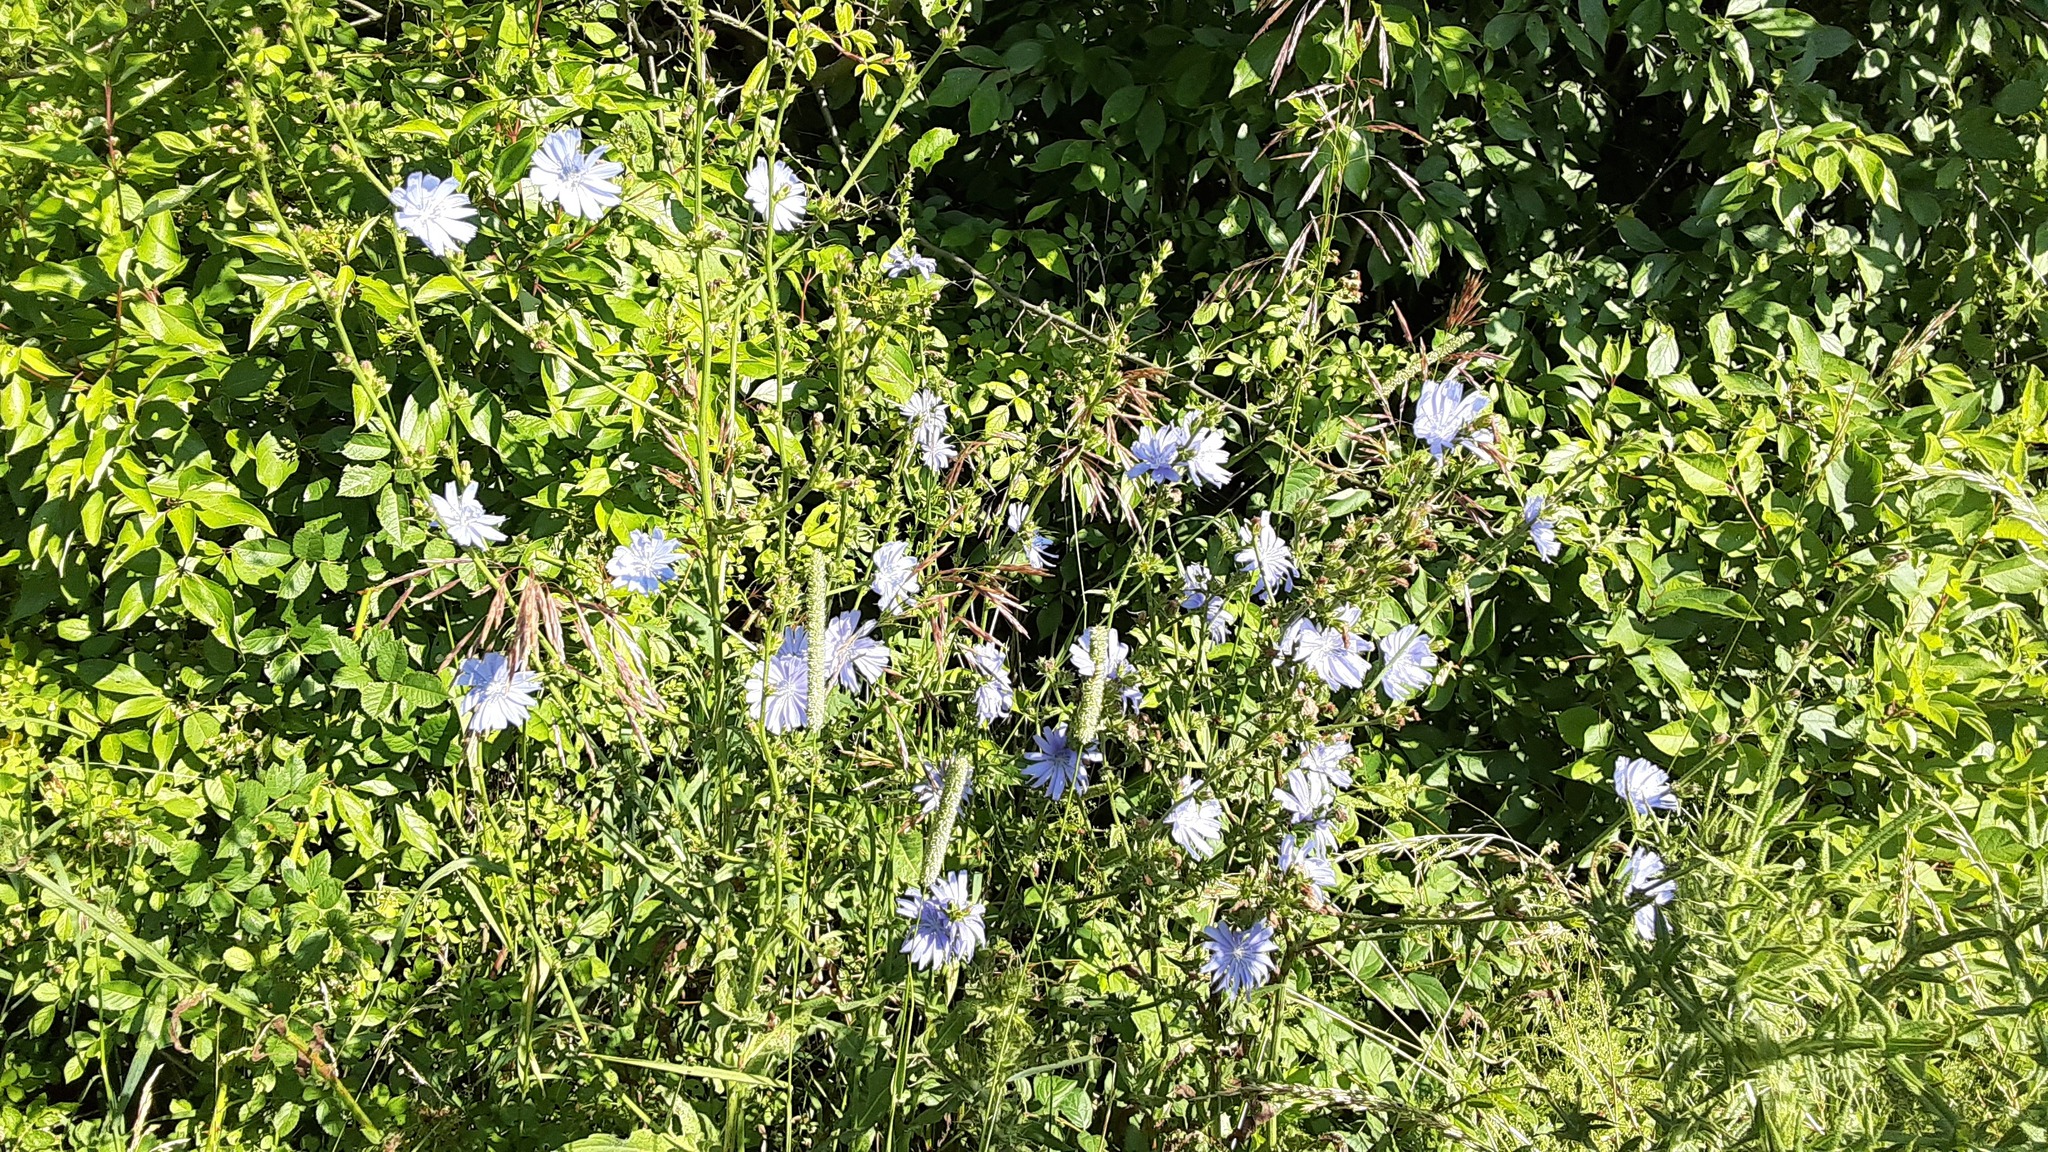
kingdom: Plantae
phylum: Tracheophyta
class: Magnoliopsida
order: Asterales
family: Asteraceae
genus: Cichorium
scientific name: Cichorium intybus
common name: Chicory
